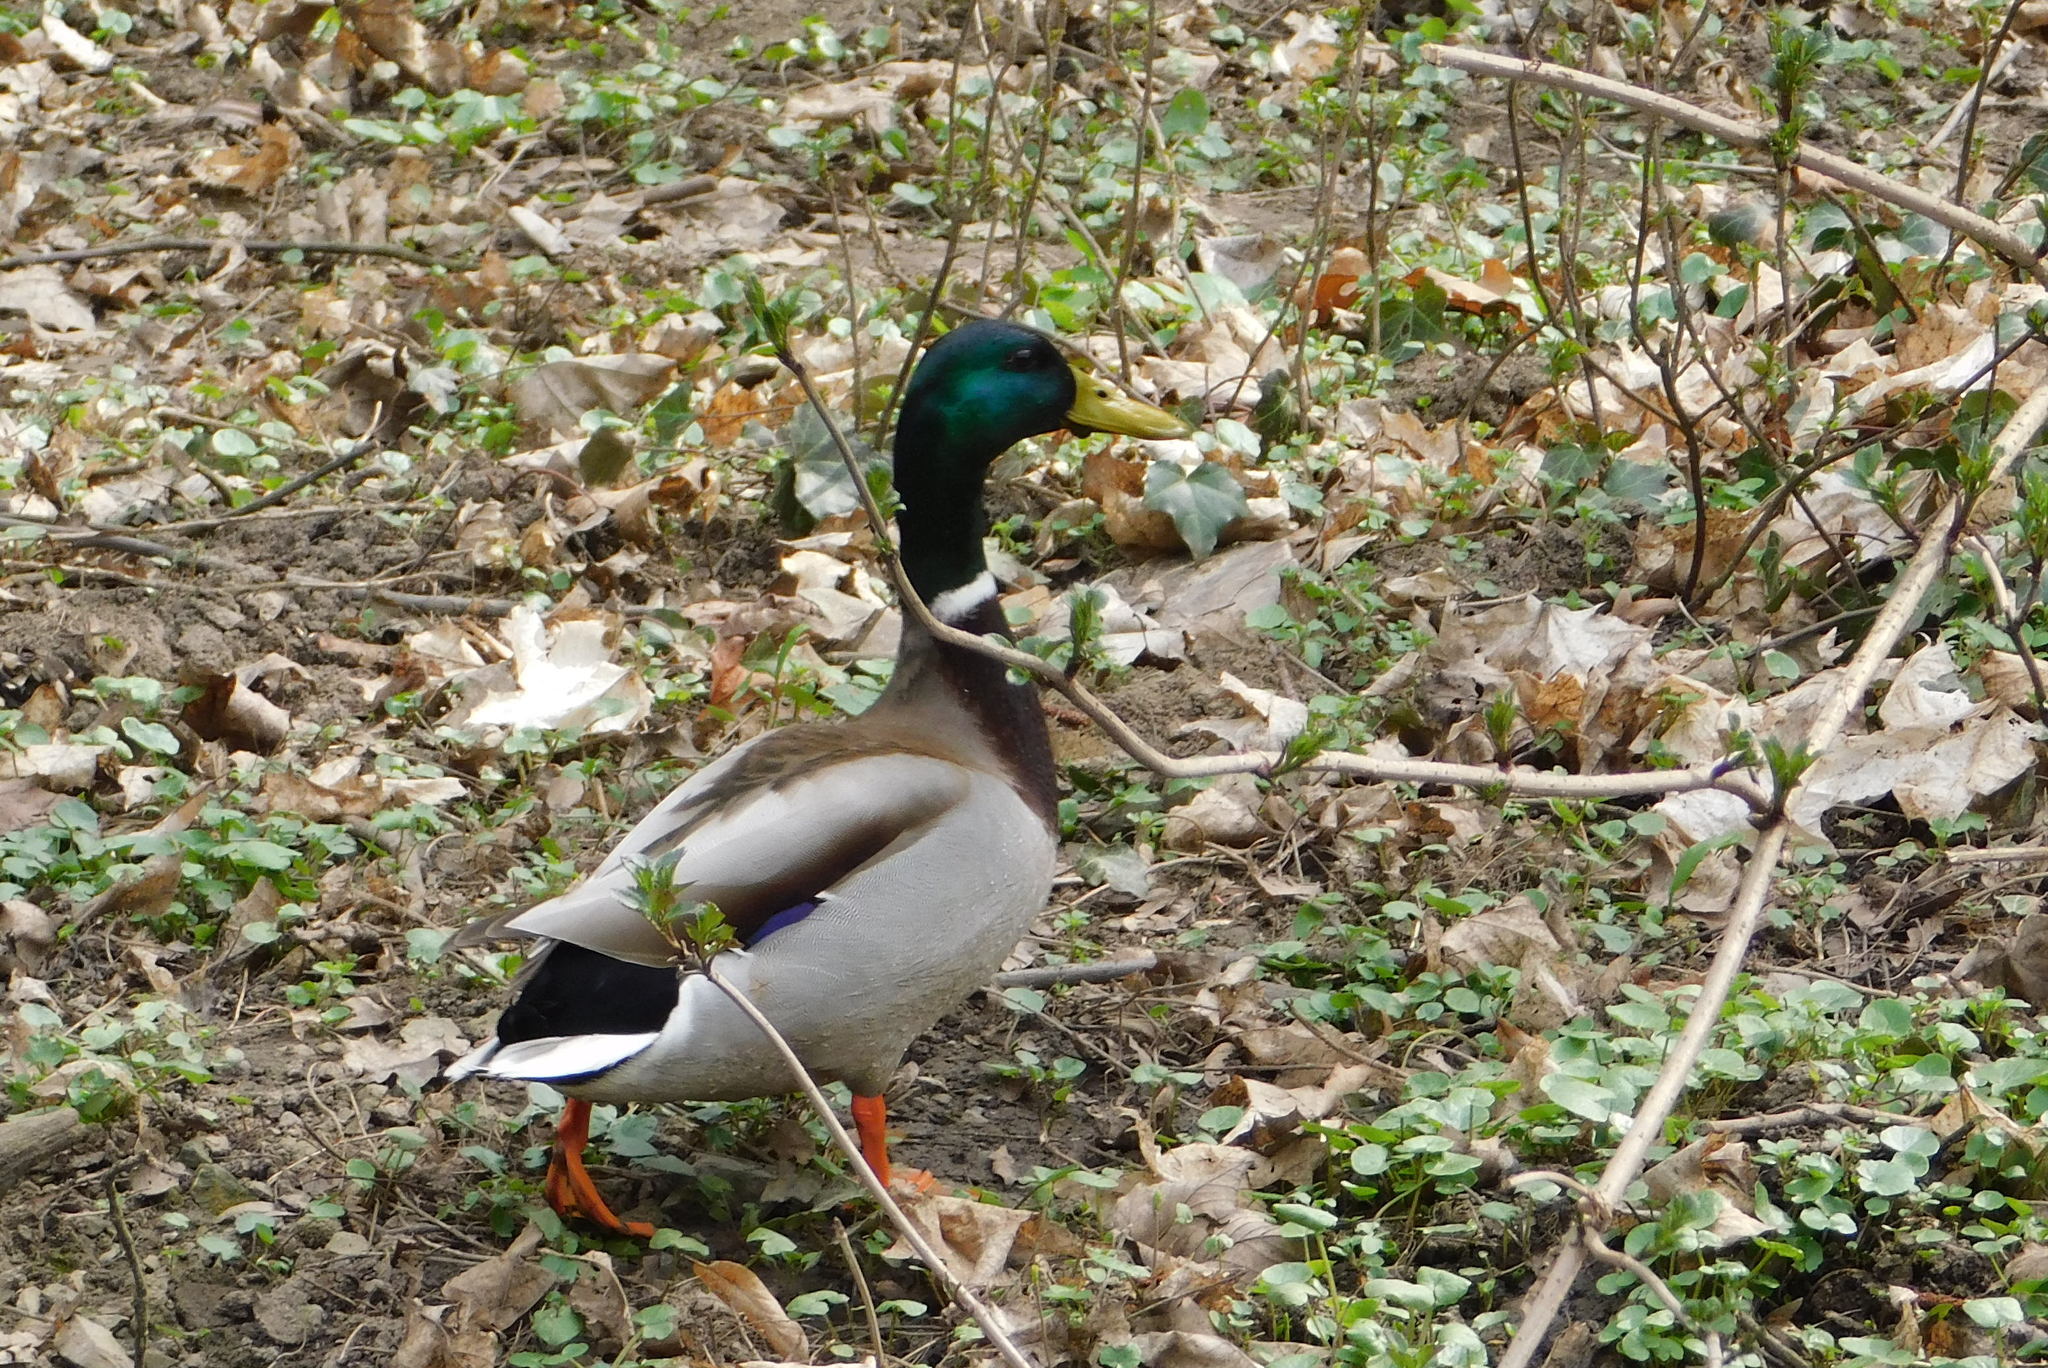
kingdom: Animalia
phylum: Chordata
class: Aves
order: Anseriformes
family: Anatidae
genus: Anas
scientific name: Anas platyrhynchos
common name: Mallard
